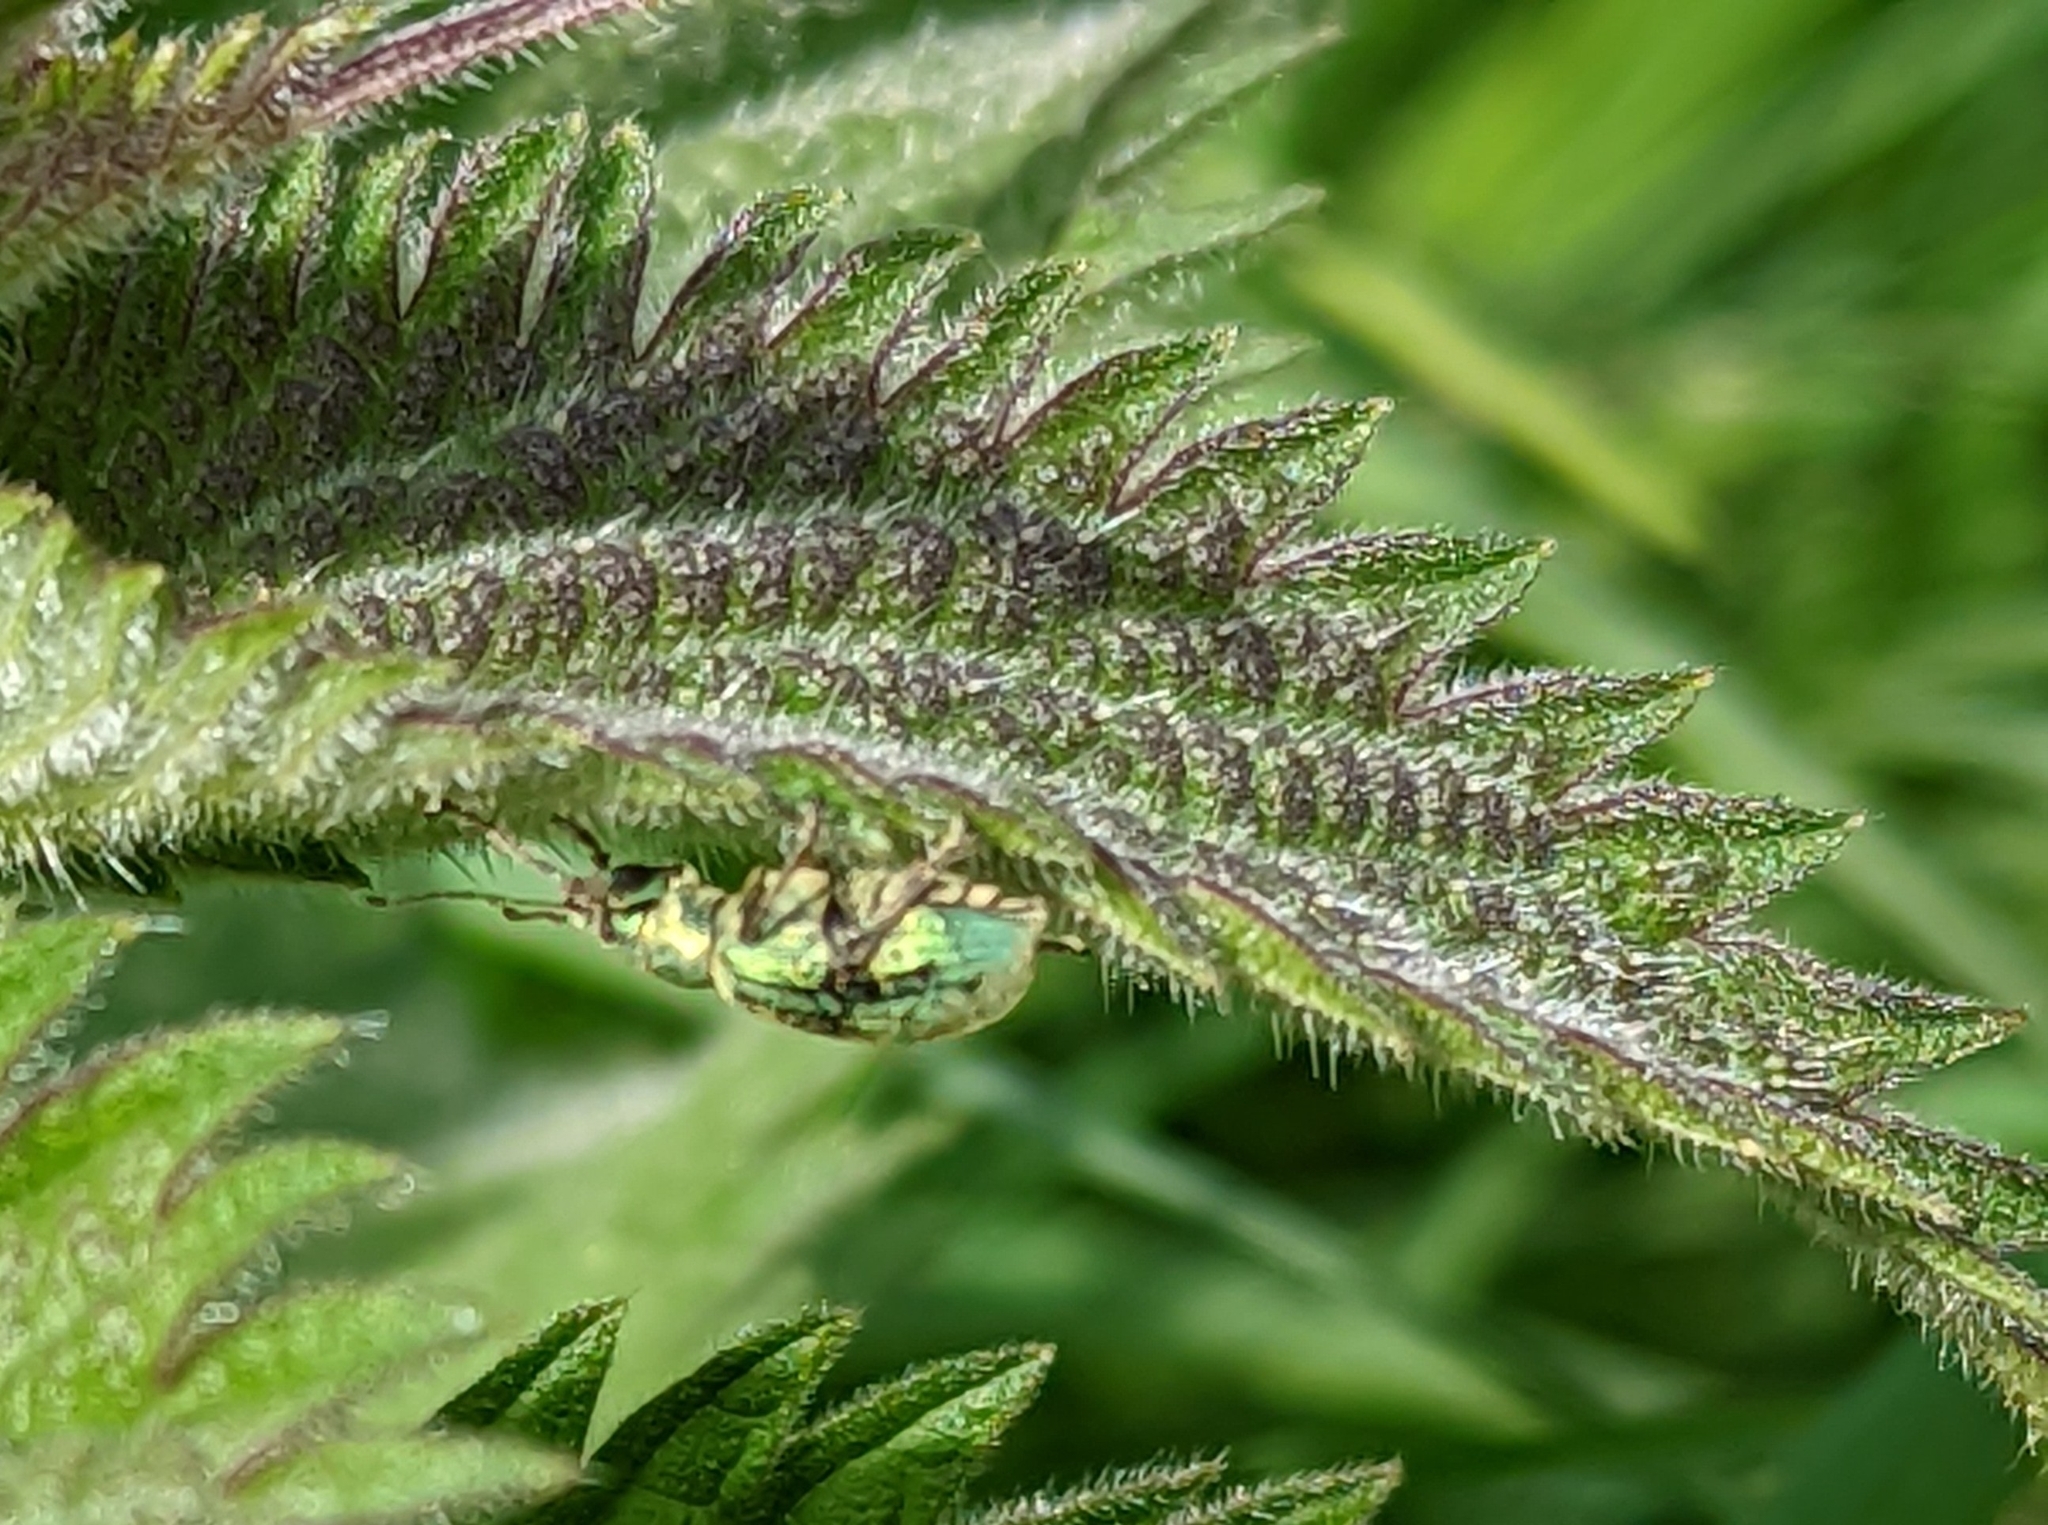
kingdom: Animalia
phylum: Arthropoda
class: Insecta
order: Coleoptera
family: Curculionidae
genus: Phyllobius
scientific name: Phyllobius pomaceus
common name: Green nettle weevil
